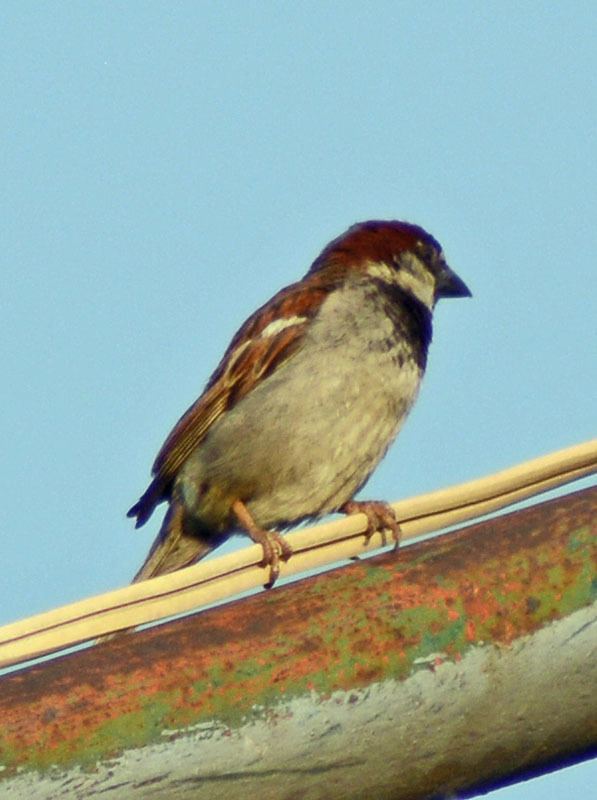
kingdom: Animalia
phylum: Chordata
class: Aves
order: Passeriformes
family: Passeridae
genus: Passer
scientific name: Passer domesticus
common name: House sparrow
